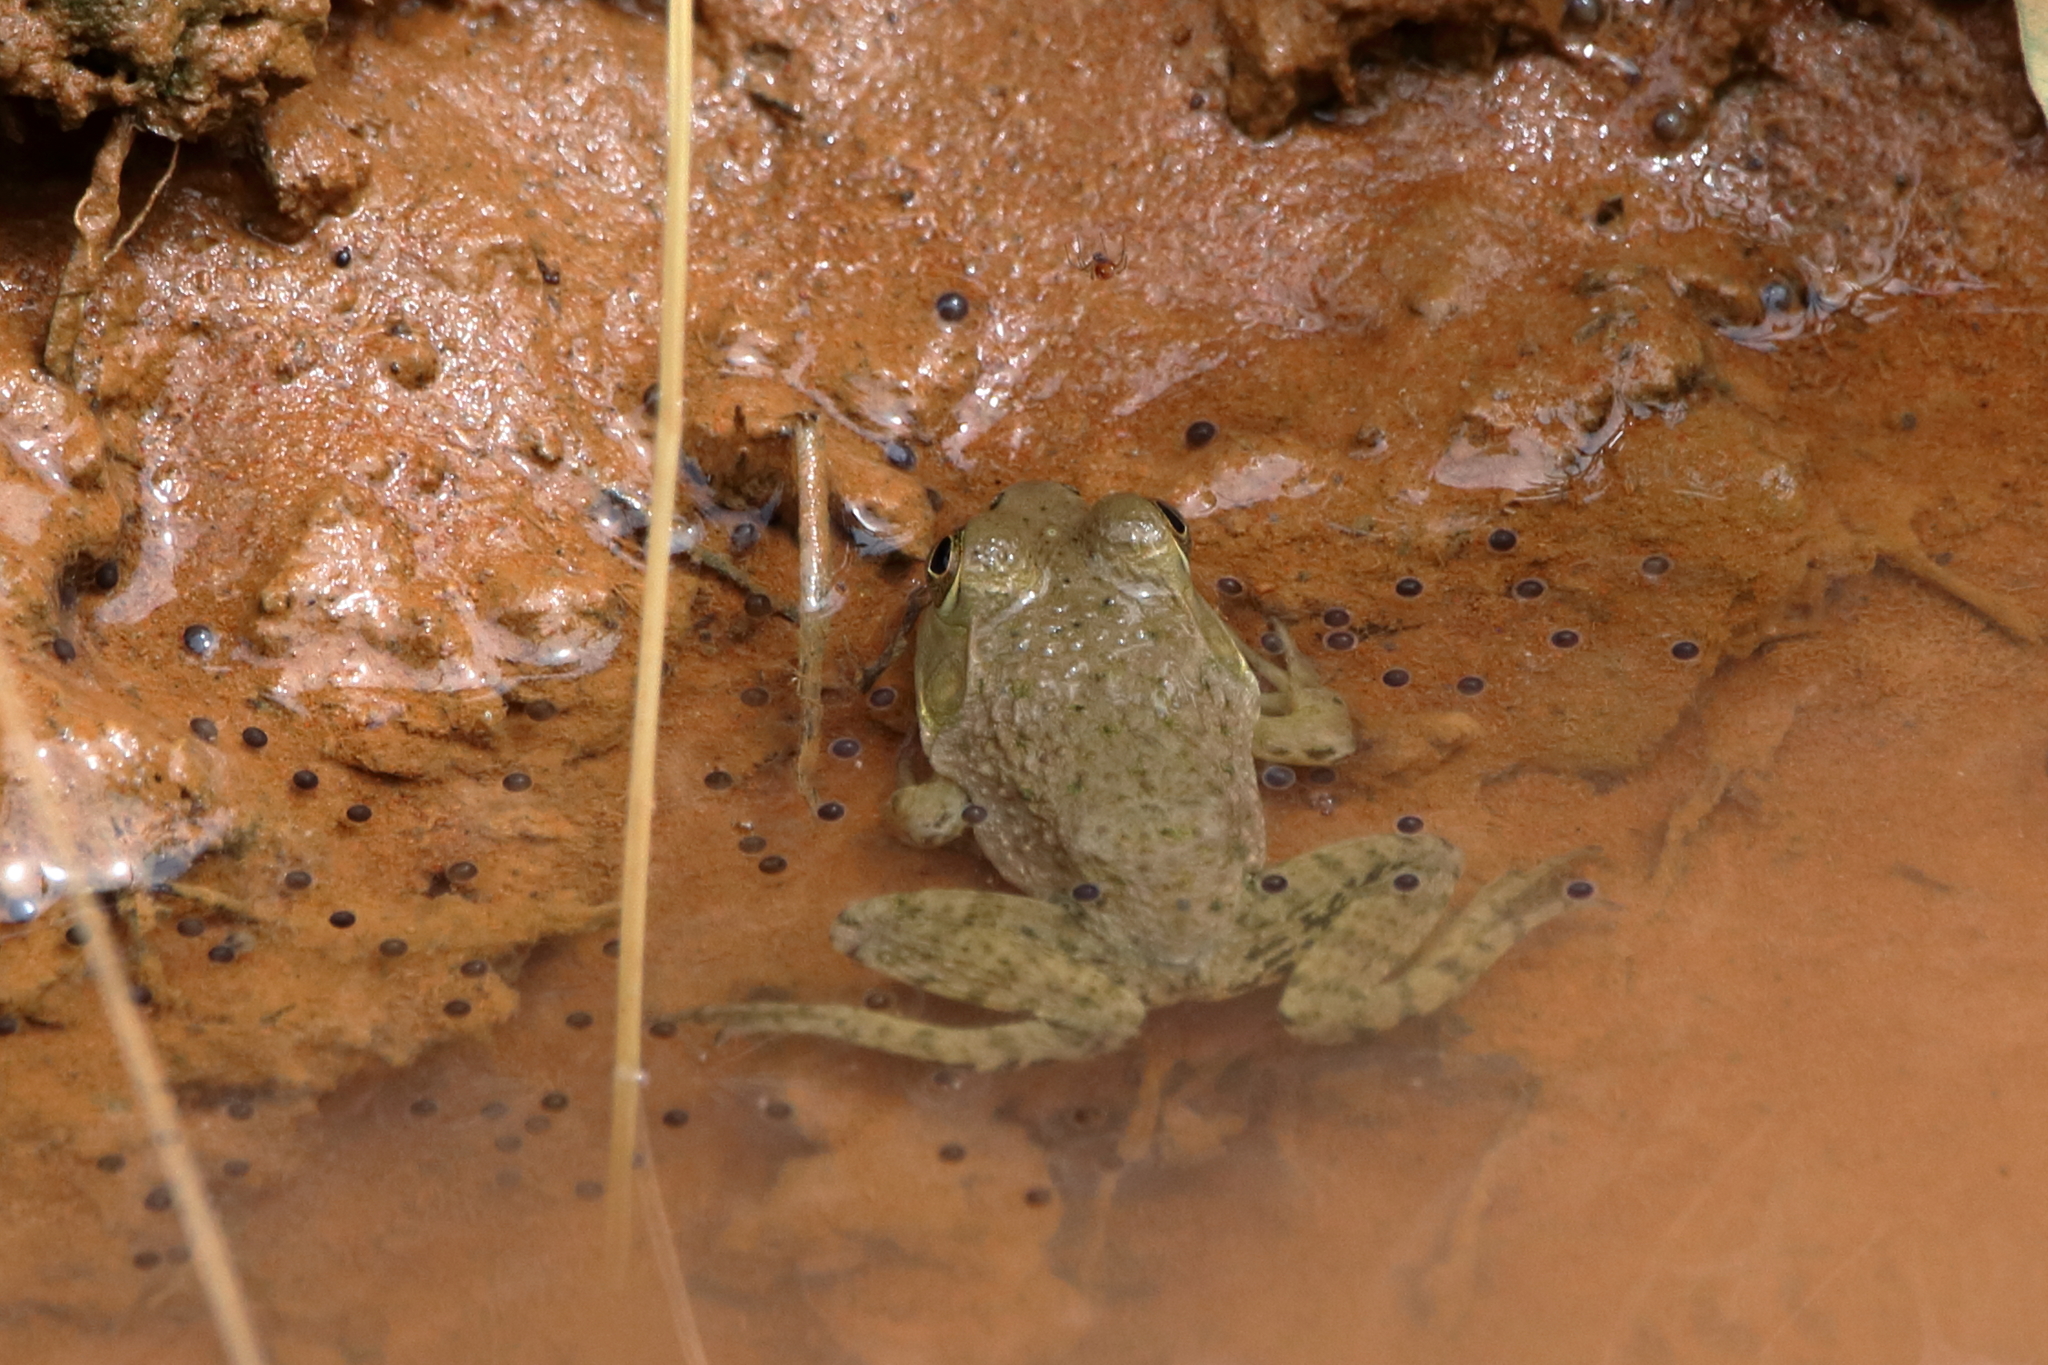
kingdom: Animalia
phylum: Chordata
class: Amphibia
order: Anura
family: Ranidae
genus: Lithobates
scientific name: Lithobates catesbeianus
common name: American bullfrog
